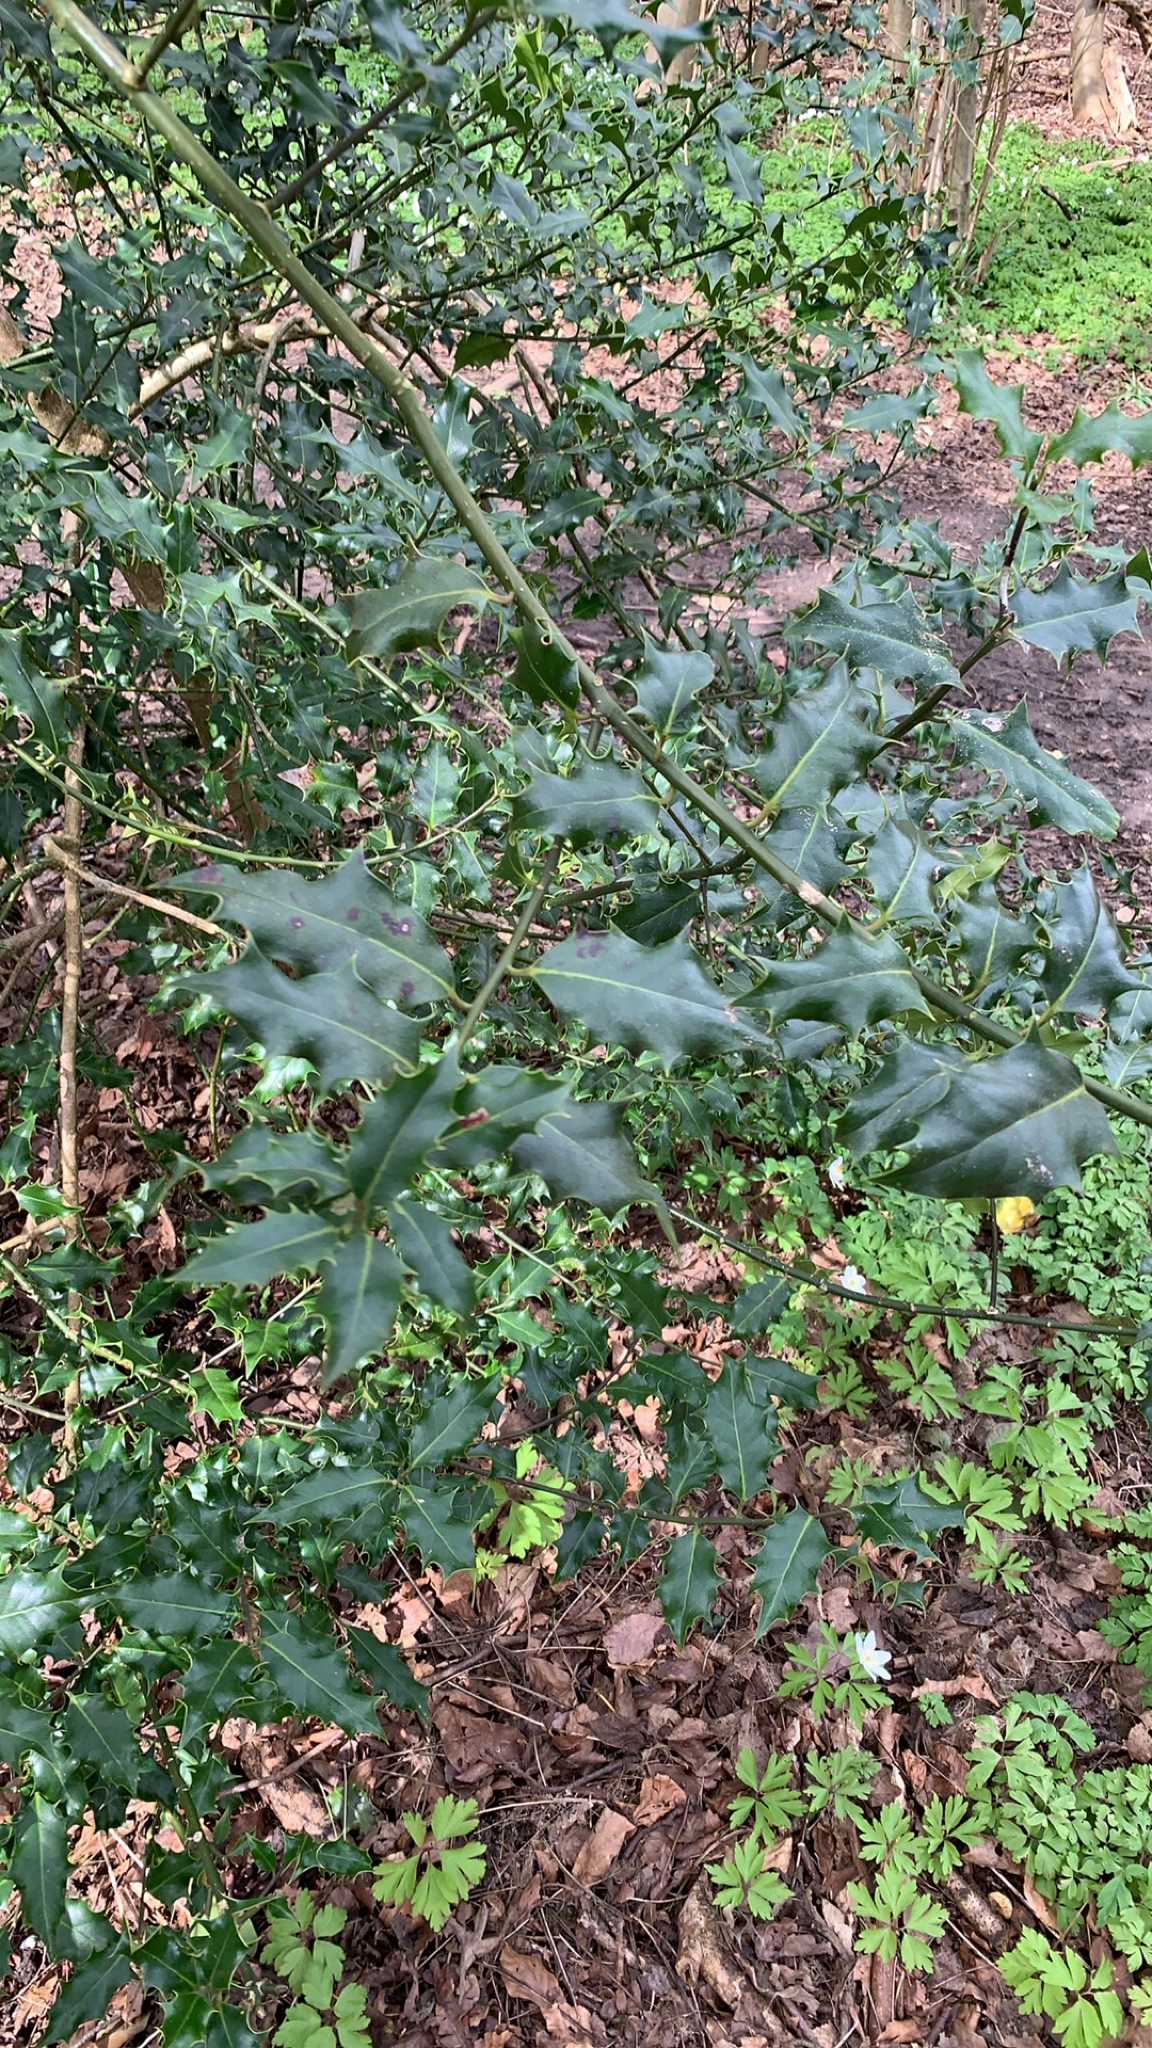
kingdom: Plantae
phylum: Tracheophyta
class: Magnoliopsida
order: Aquifoliales
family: Aquifoliaceae
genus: Ilex
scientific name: Ilex aquifolium
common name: English holly
